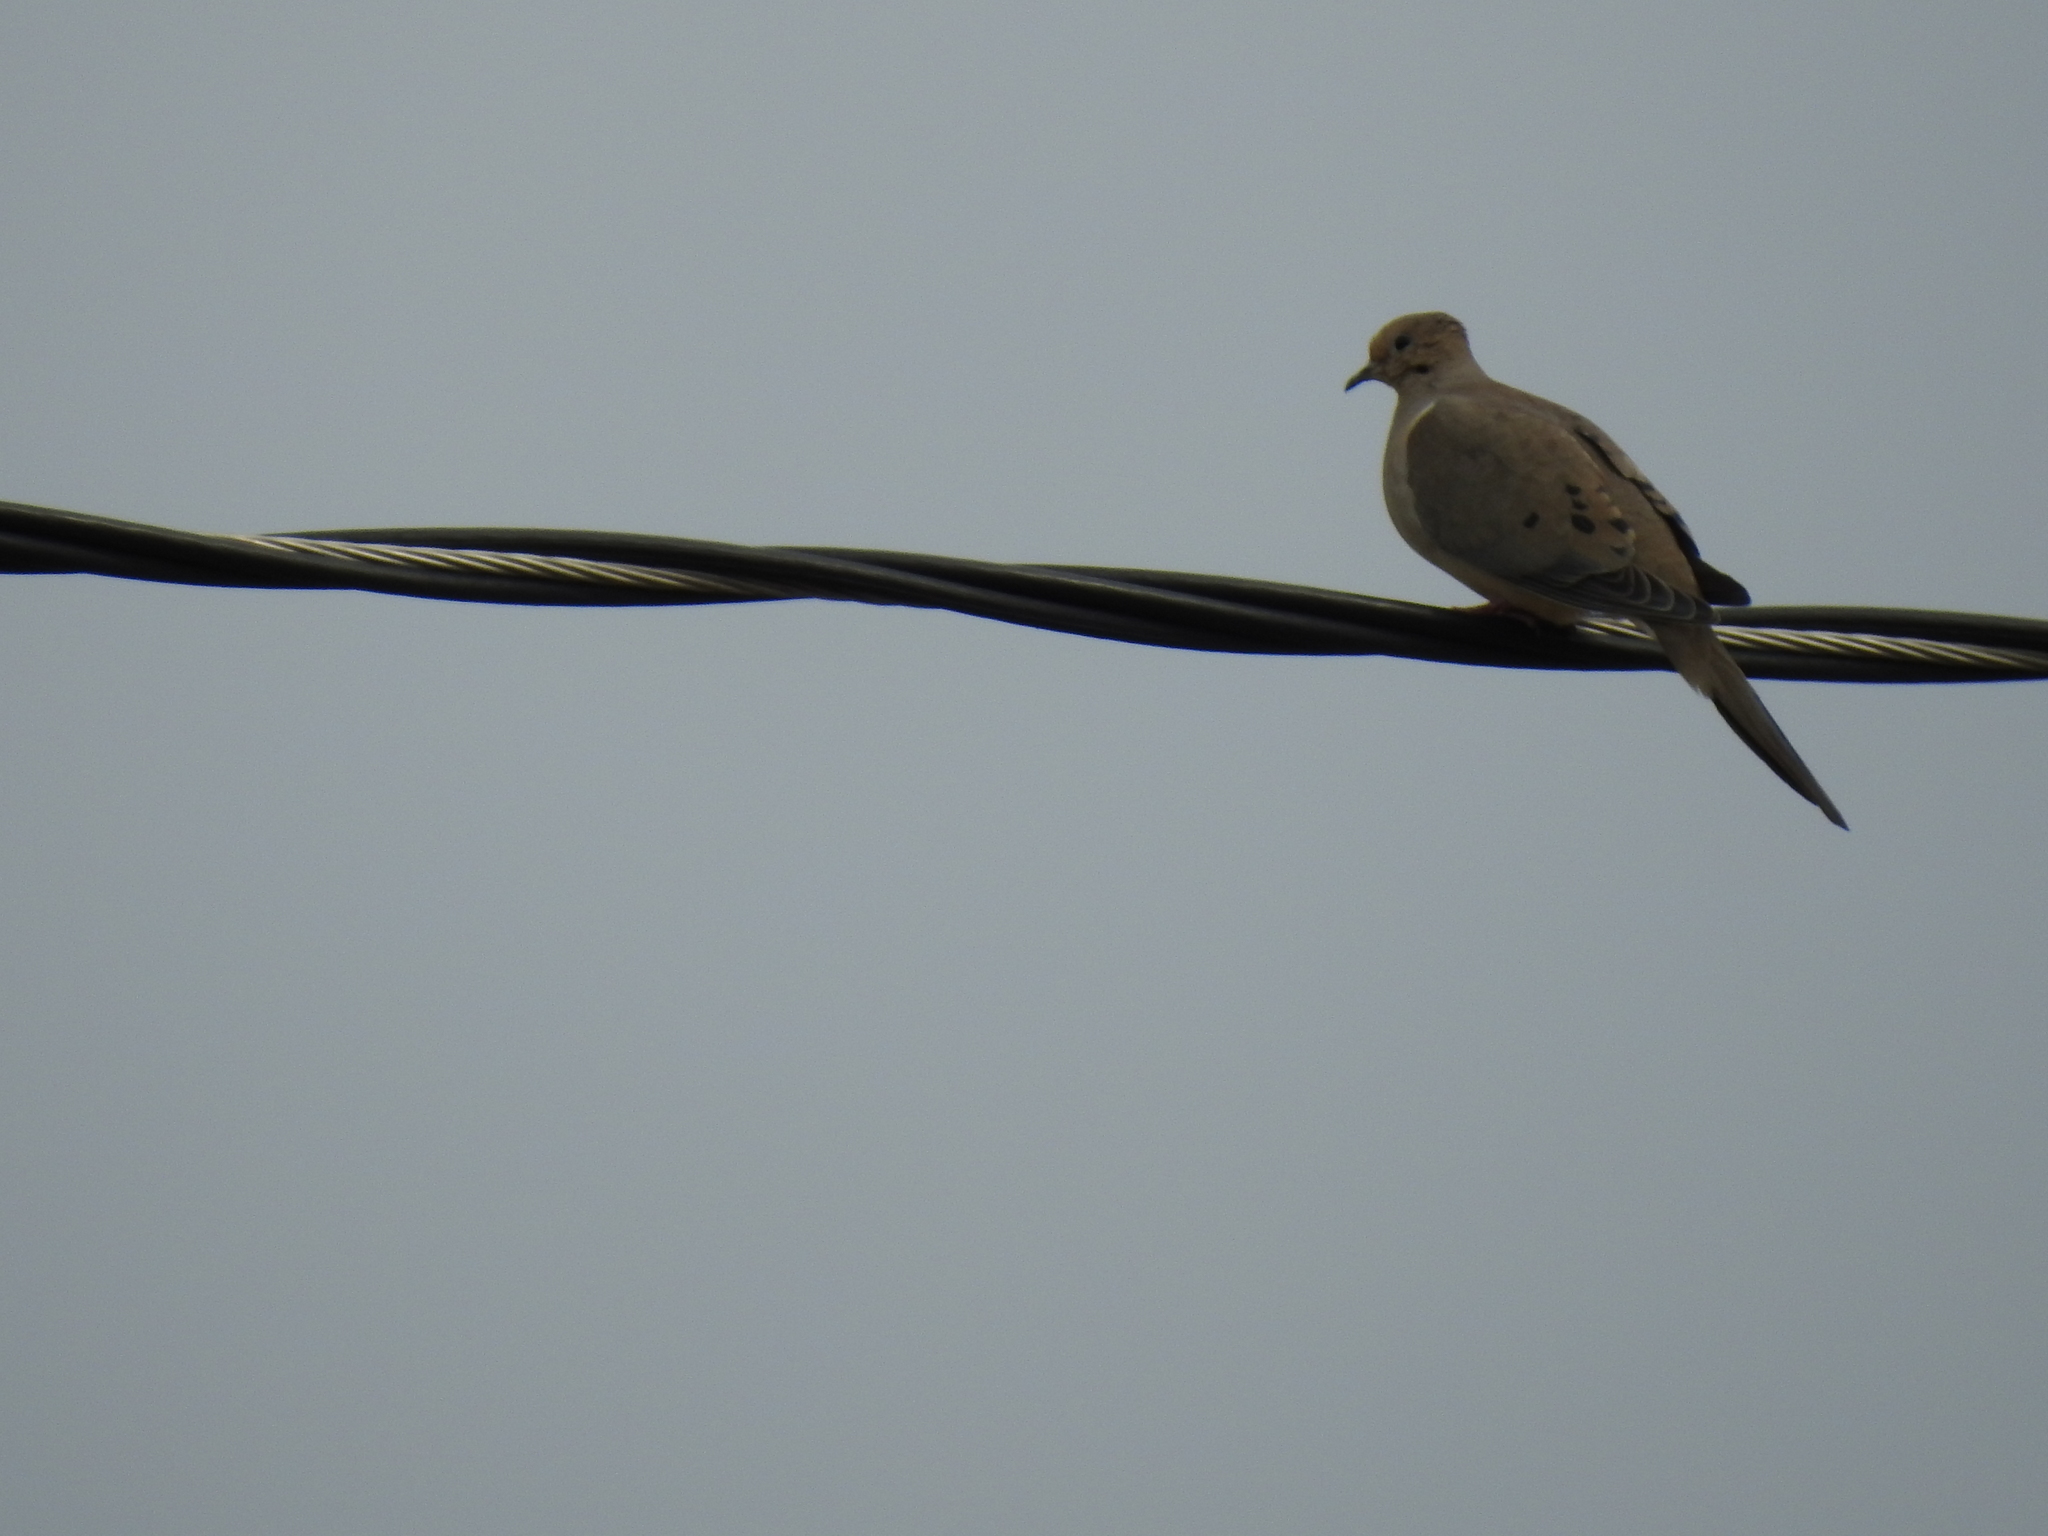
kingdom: Animalia
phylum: Chordata
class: Aves
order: Columbiformes
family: Columbidae
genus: Zenaida
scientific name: Zenaida macroura
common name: Mourning dove
